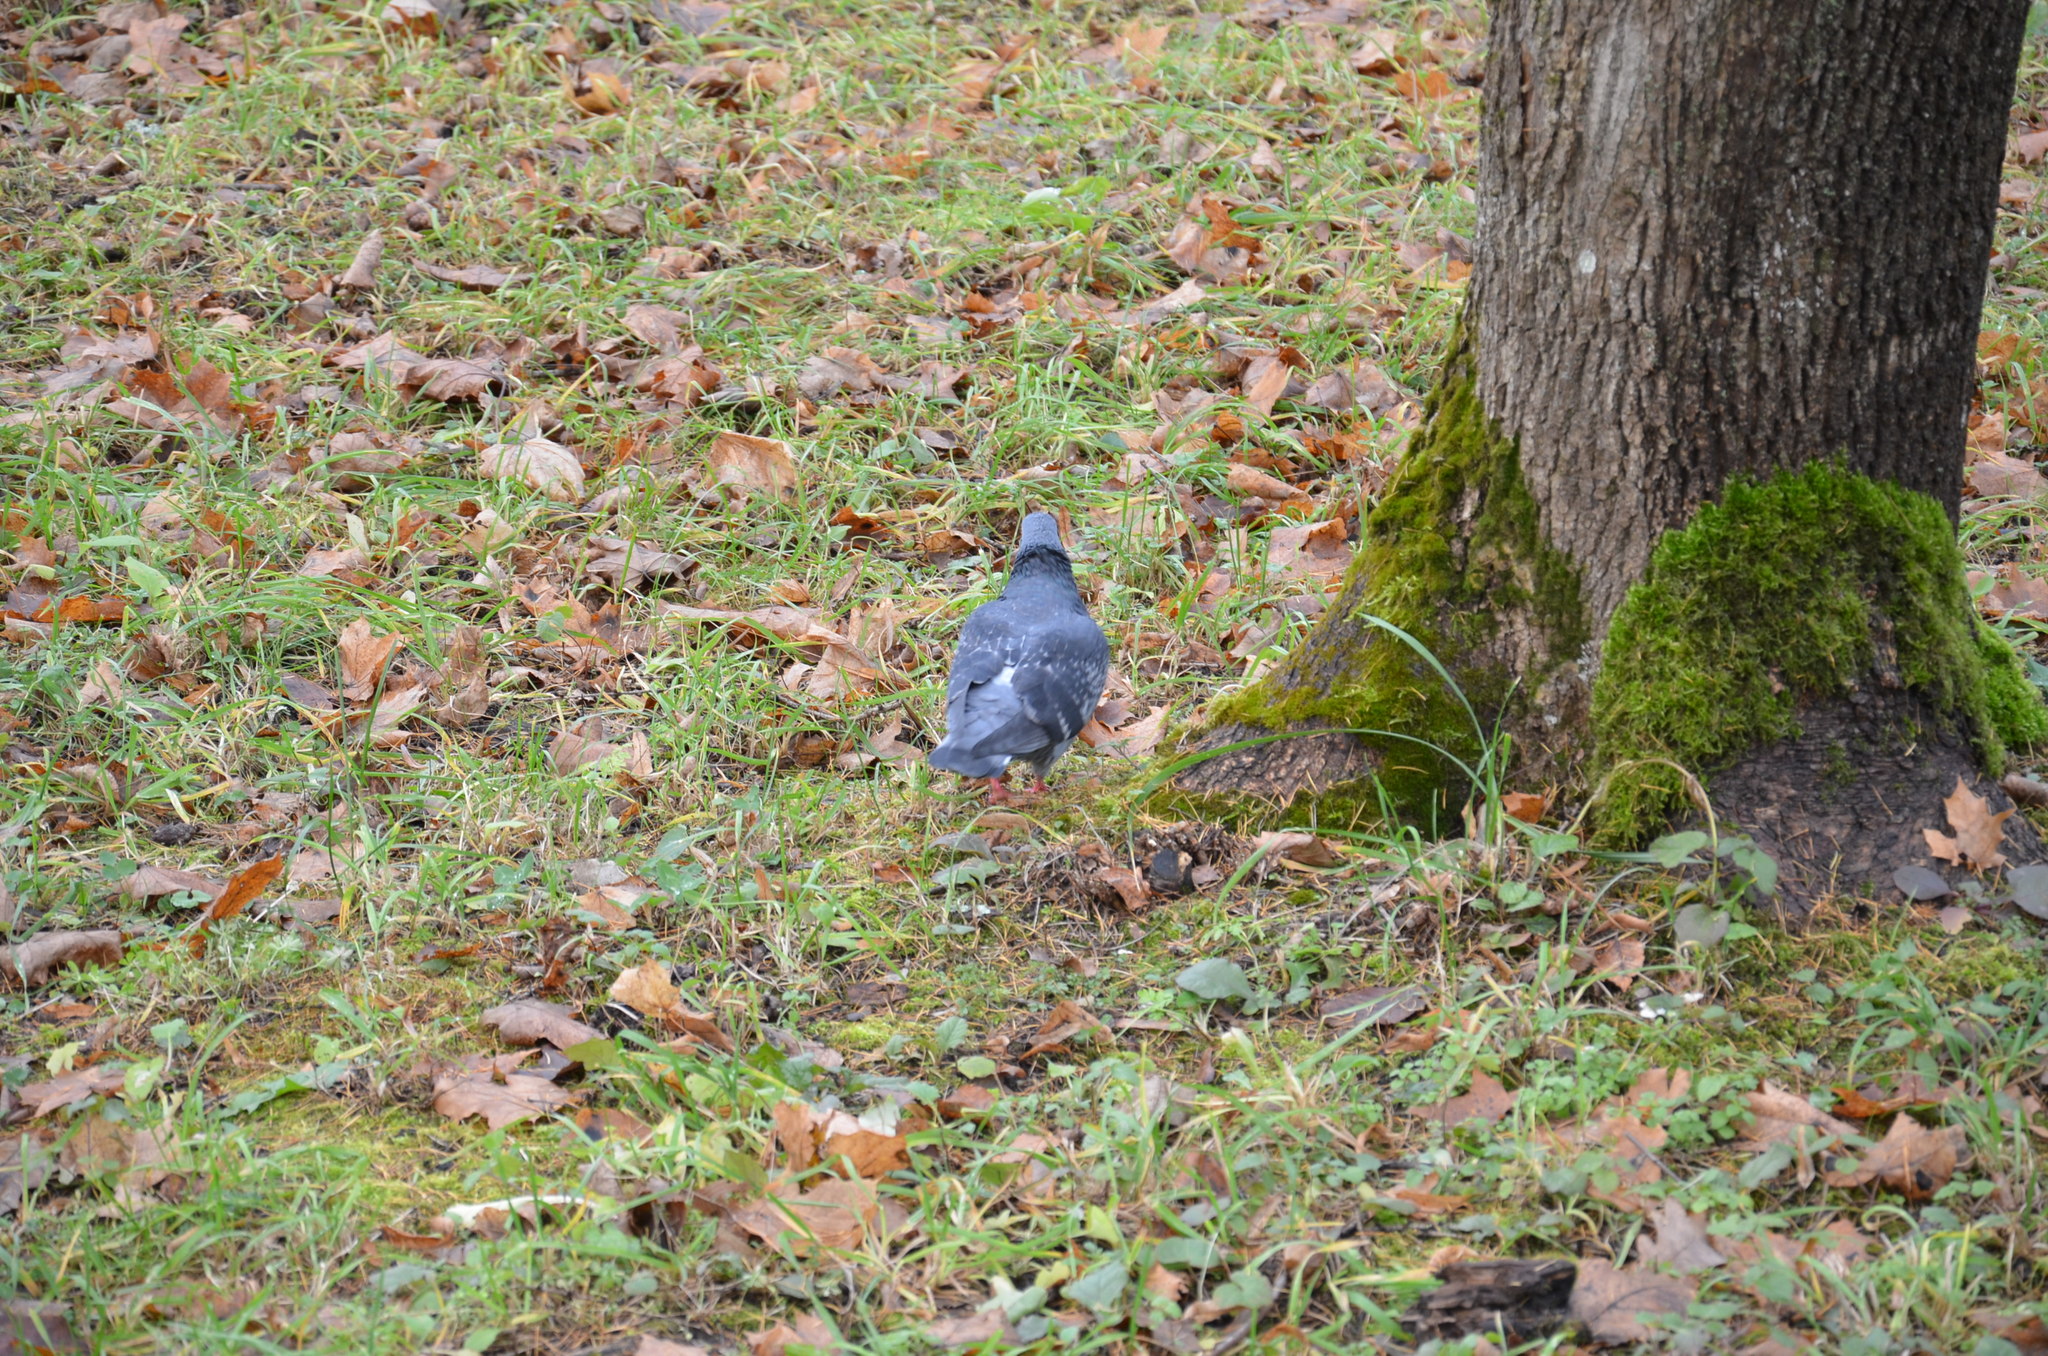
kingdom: Animalia
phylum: Chordata
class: Aves
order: Columbiformes
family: Columbidae
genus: Columba
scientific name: Columba livia
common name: Rock pigeon
